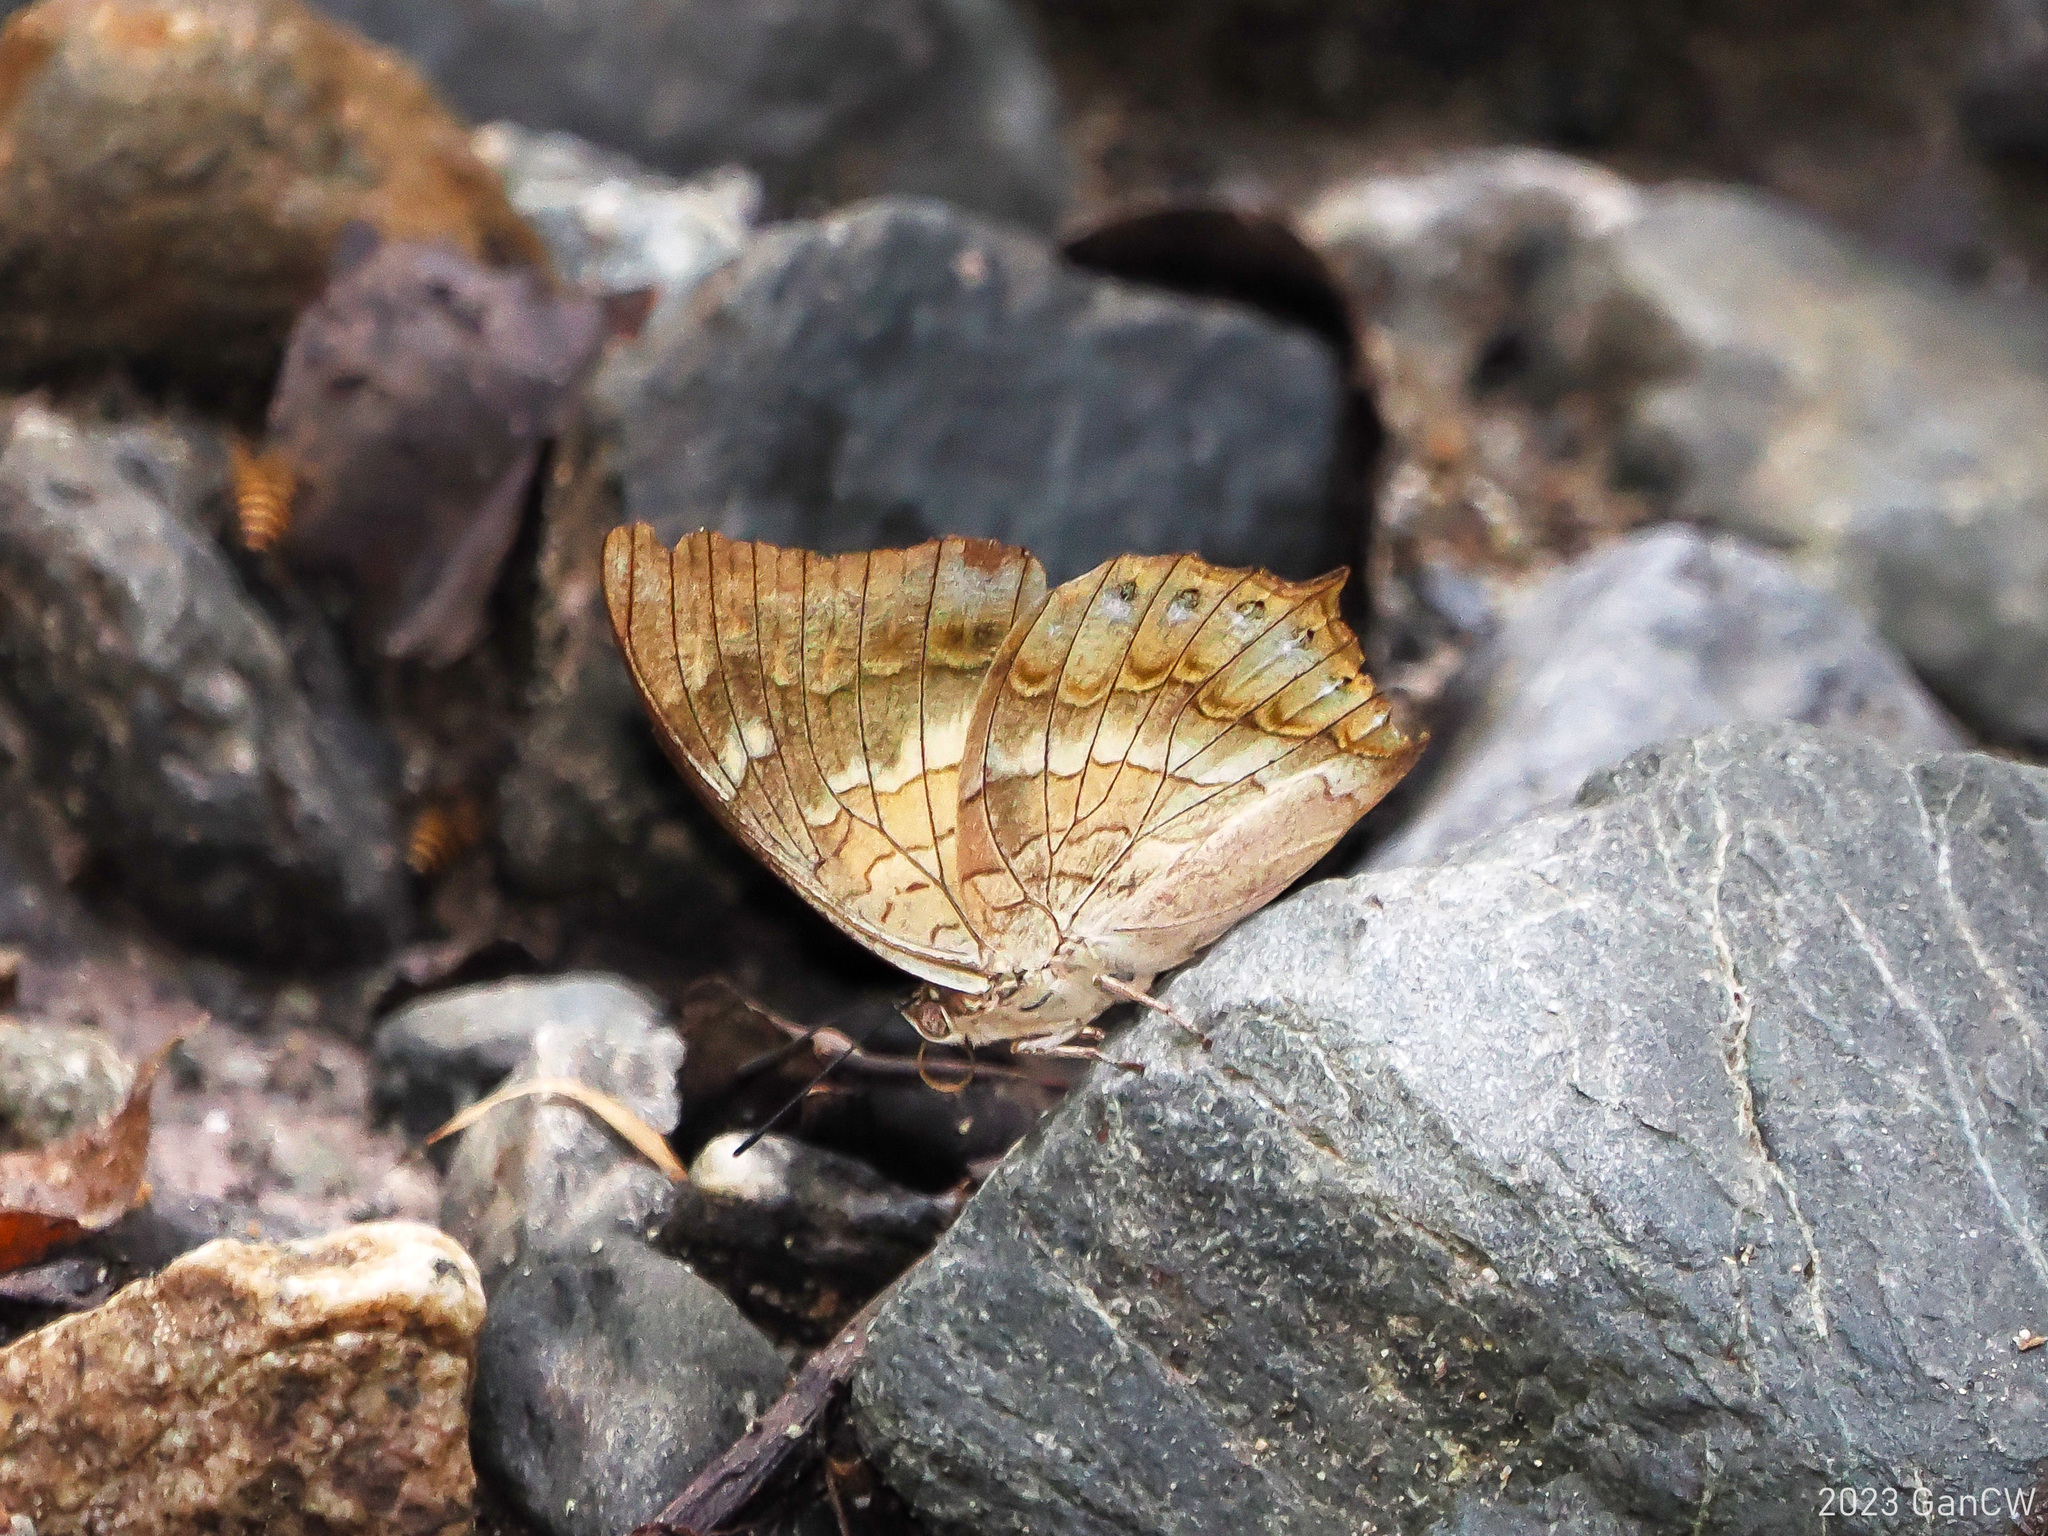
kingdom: Animalia
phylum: Arthropoda
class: Insecta
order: Lepidoptera
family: Nymphalidae
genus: Charaxes
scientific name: Charaxes nitebis
